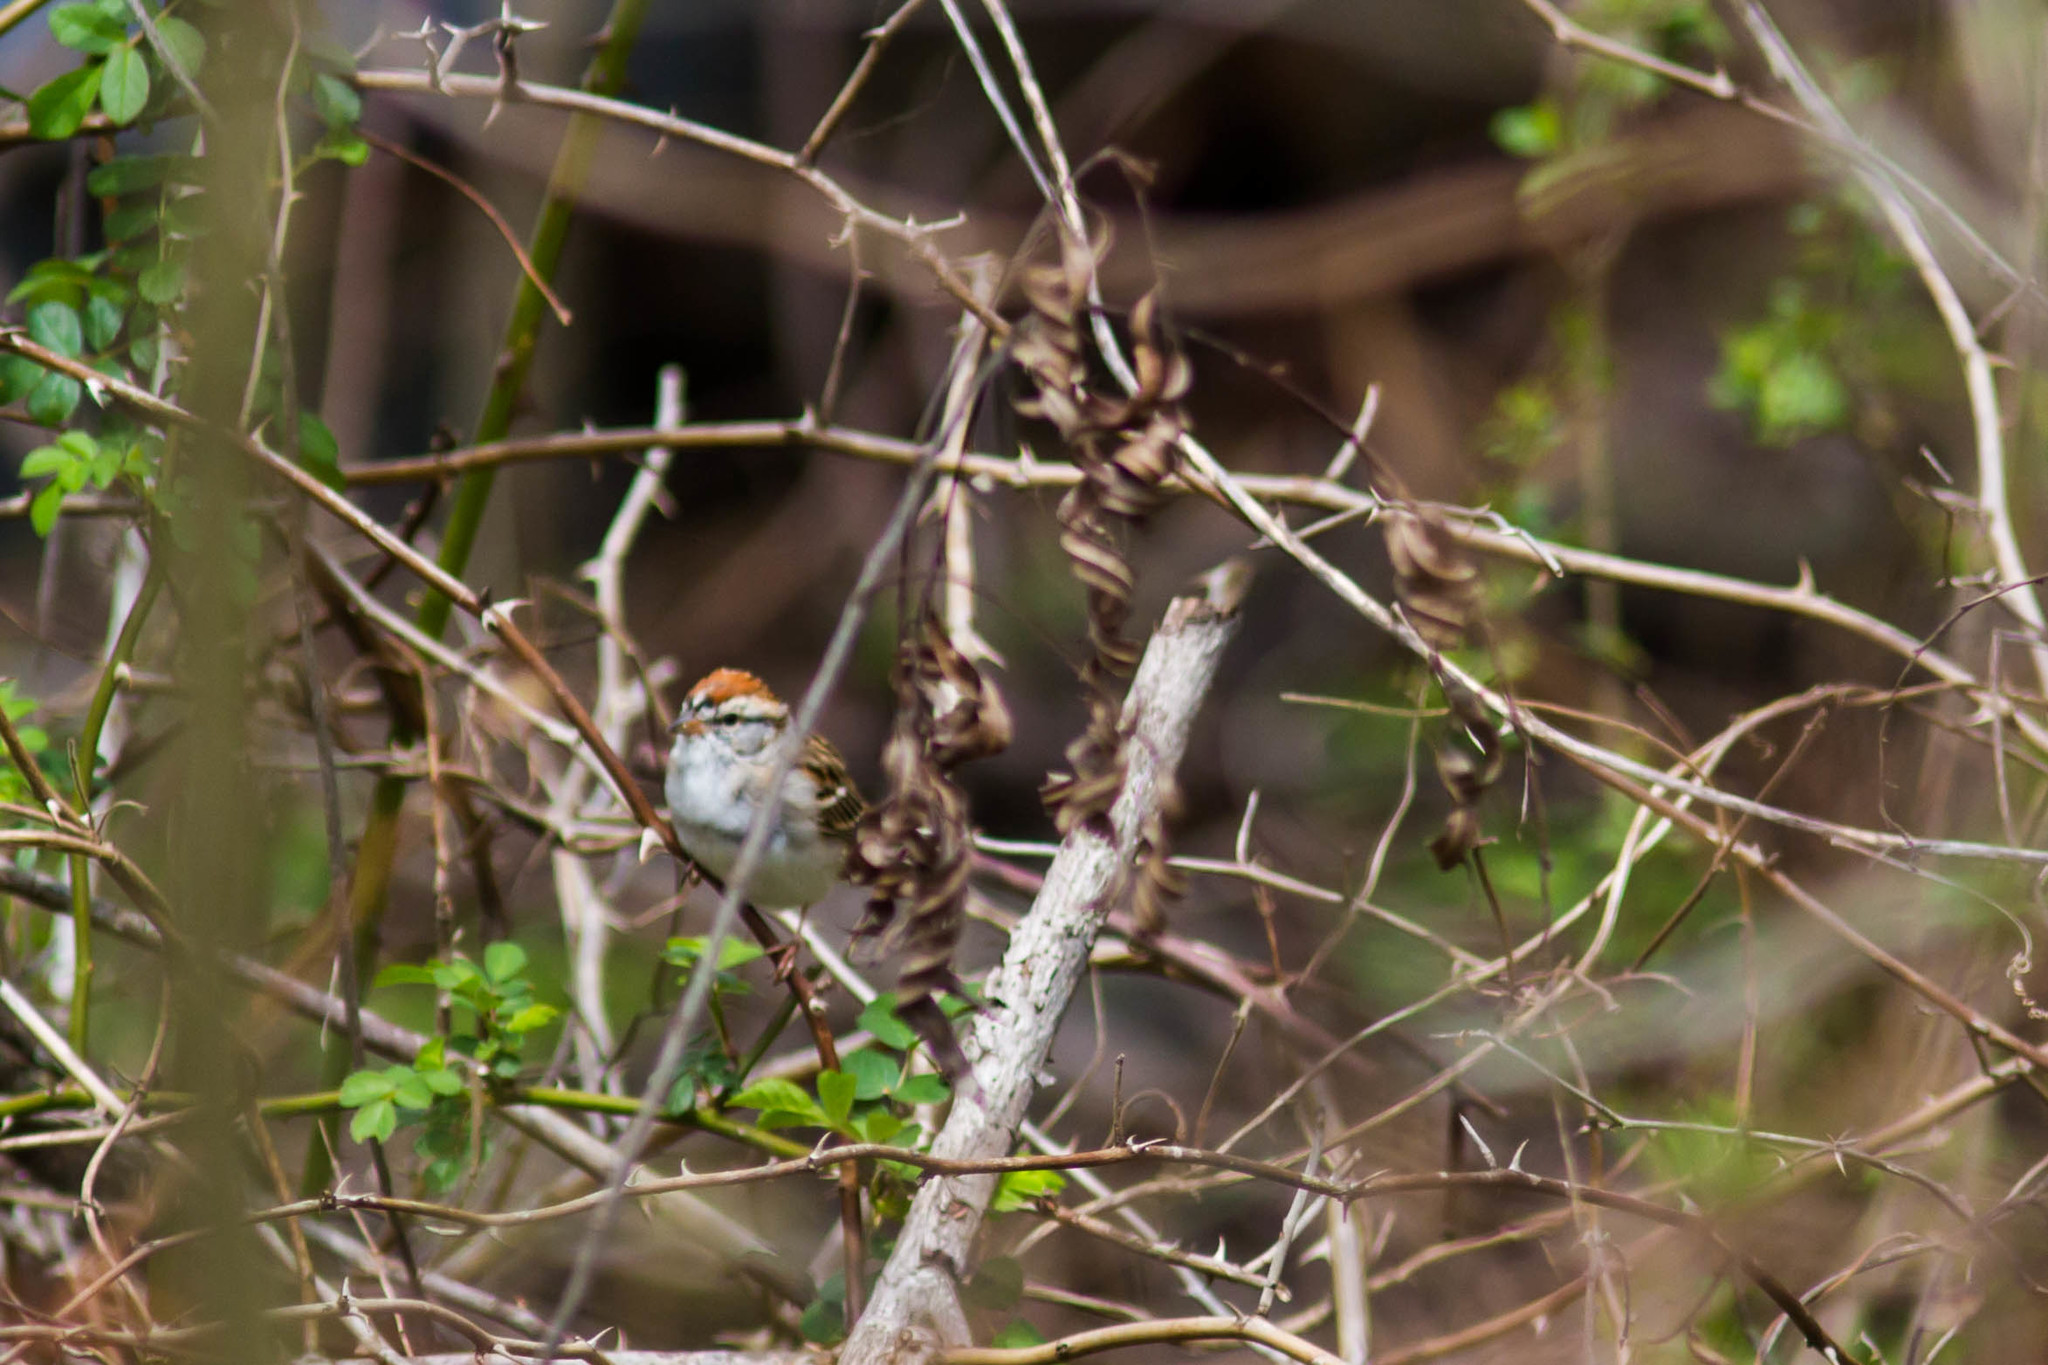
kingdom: Animalia
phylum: Chordata
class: Aves
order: Passeriformes
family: Passerellidae
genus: Spizella
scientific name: Spizella passerina
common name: Chipping sparrow
